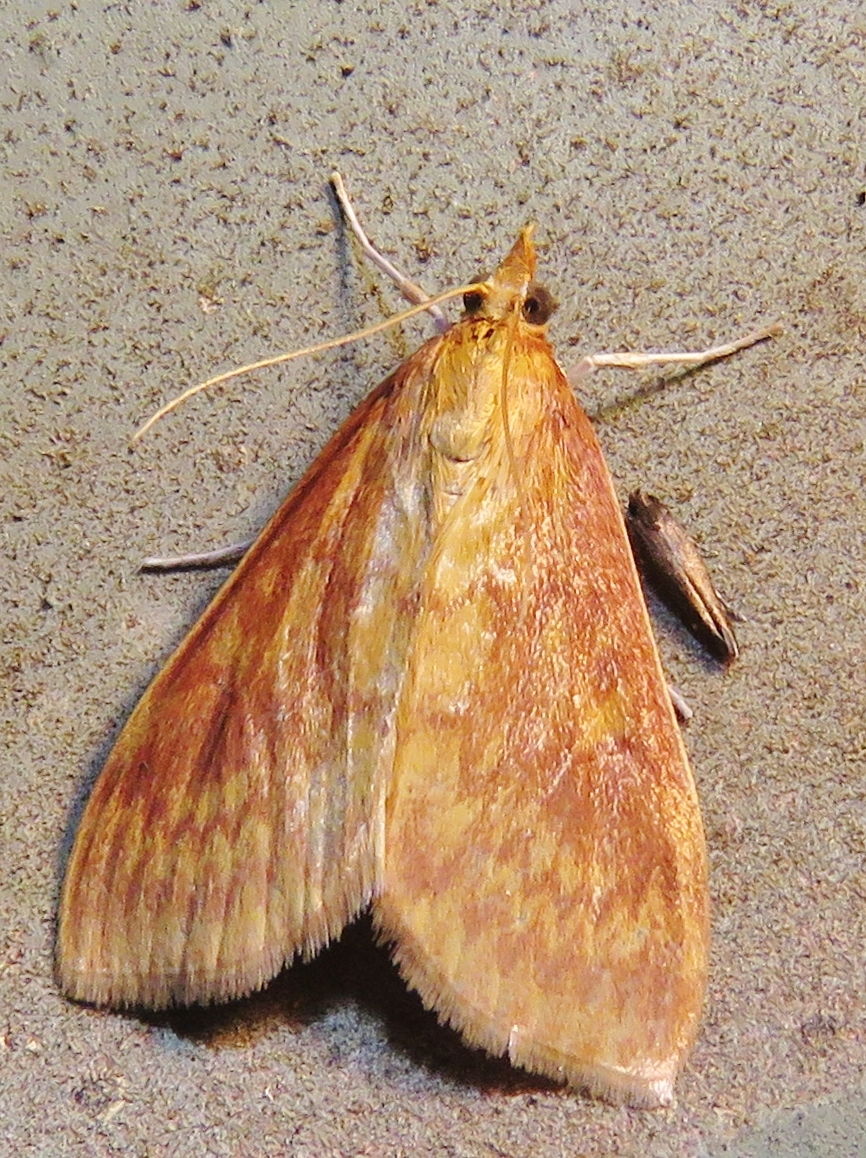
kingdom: Animalia
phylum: Arthropoda
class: Insecta
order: Lepidoptera
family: Crambidae
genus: Ostrinia
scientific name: Ostrinia penitalis
